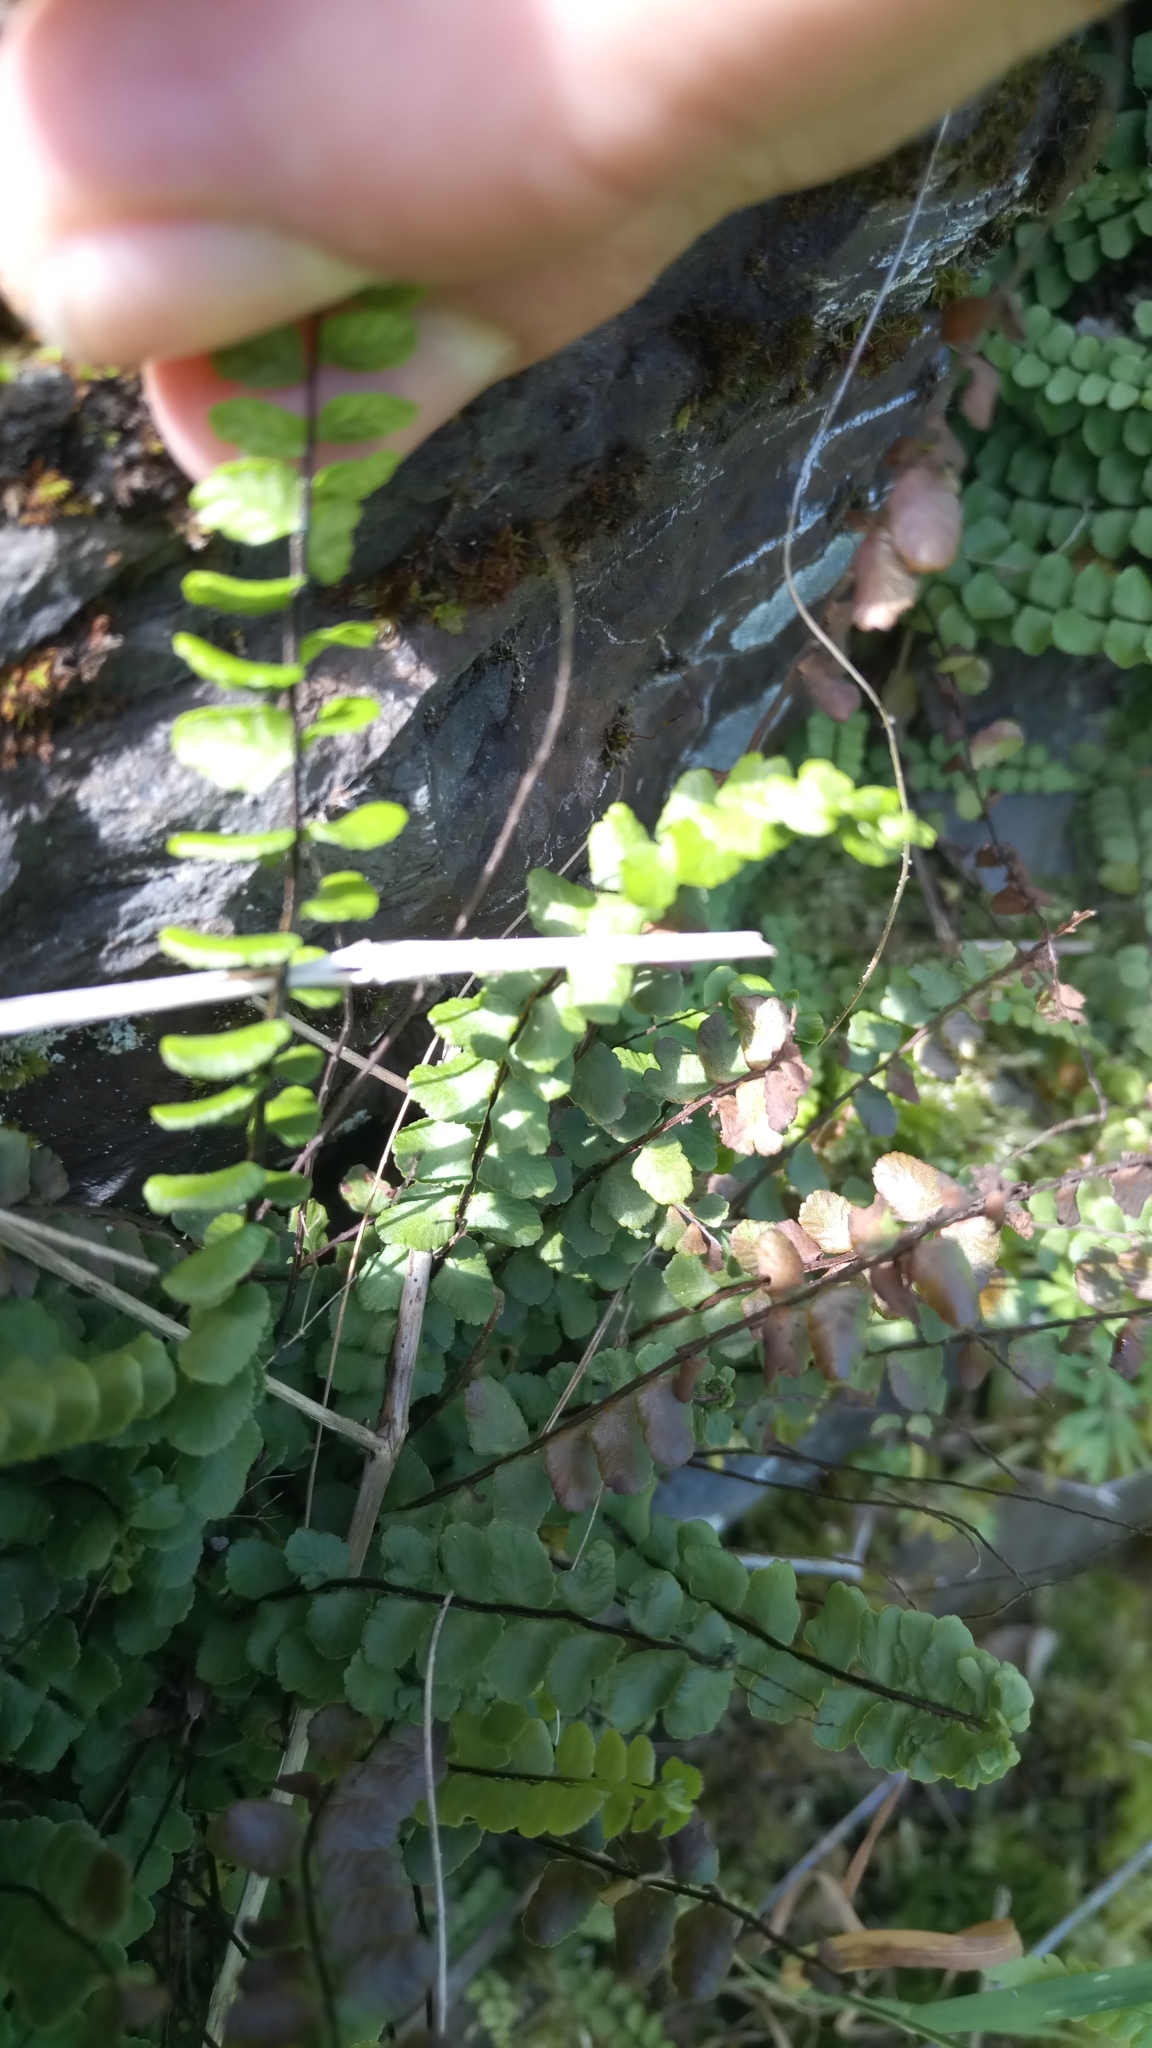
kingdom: Plantae
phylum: Tracheophyta
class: Polypodiopsida
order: Polypodiales
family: Aspleniaceae
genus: Asplenium
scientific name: Asplenium trichomanes
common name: Maidenhair spleenwort
